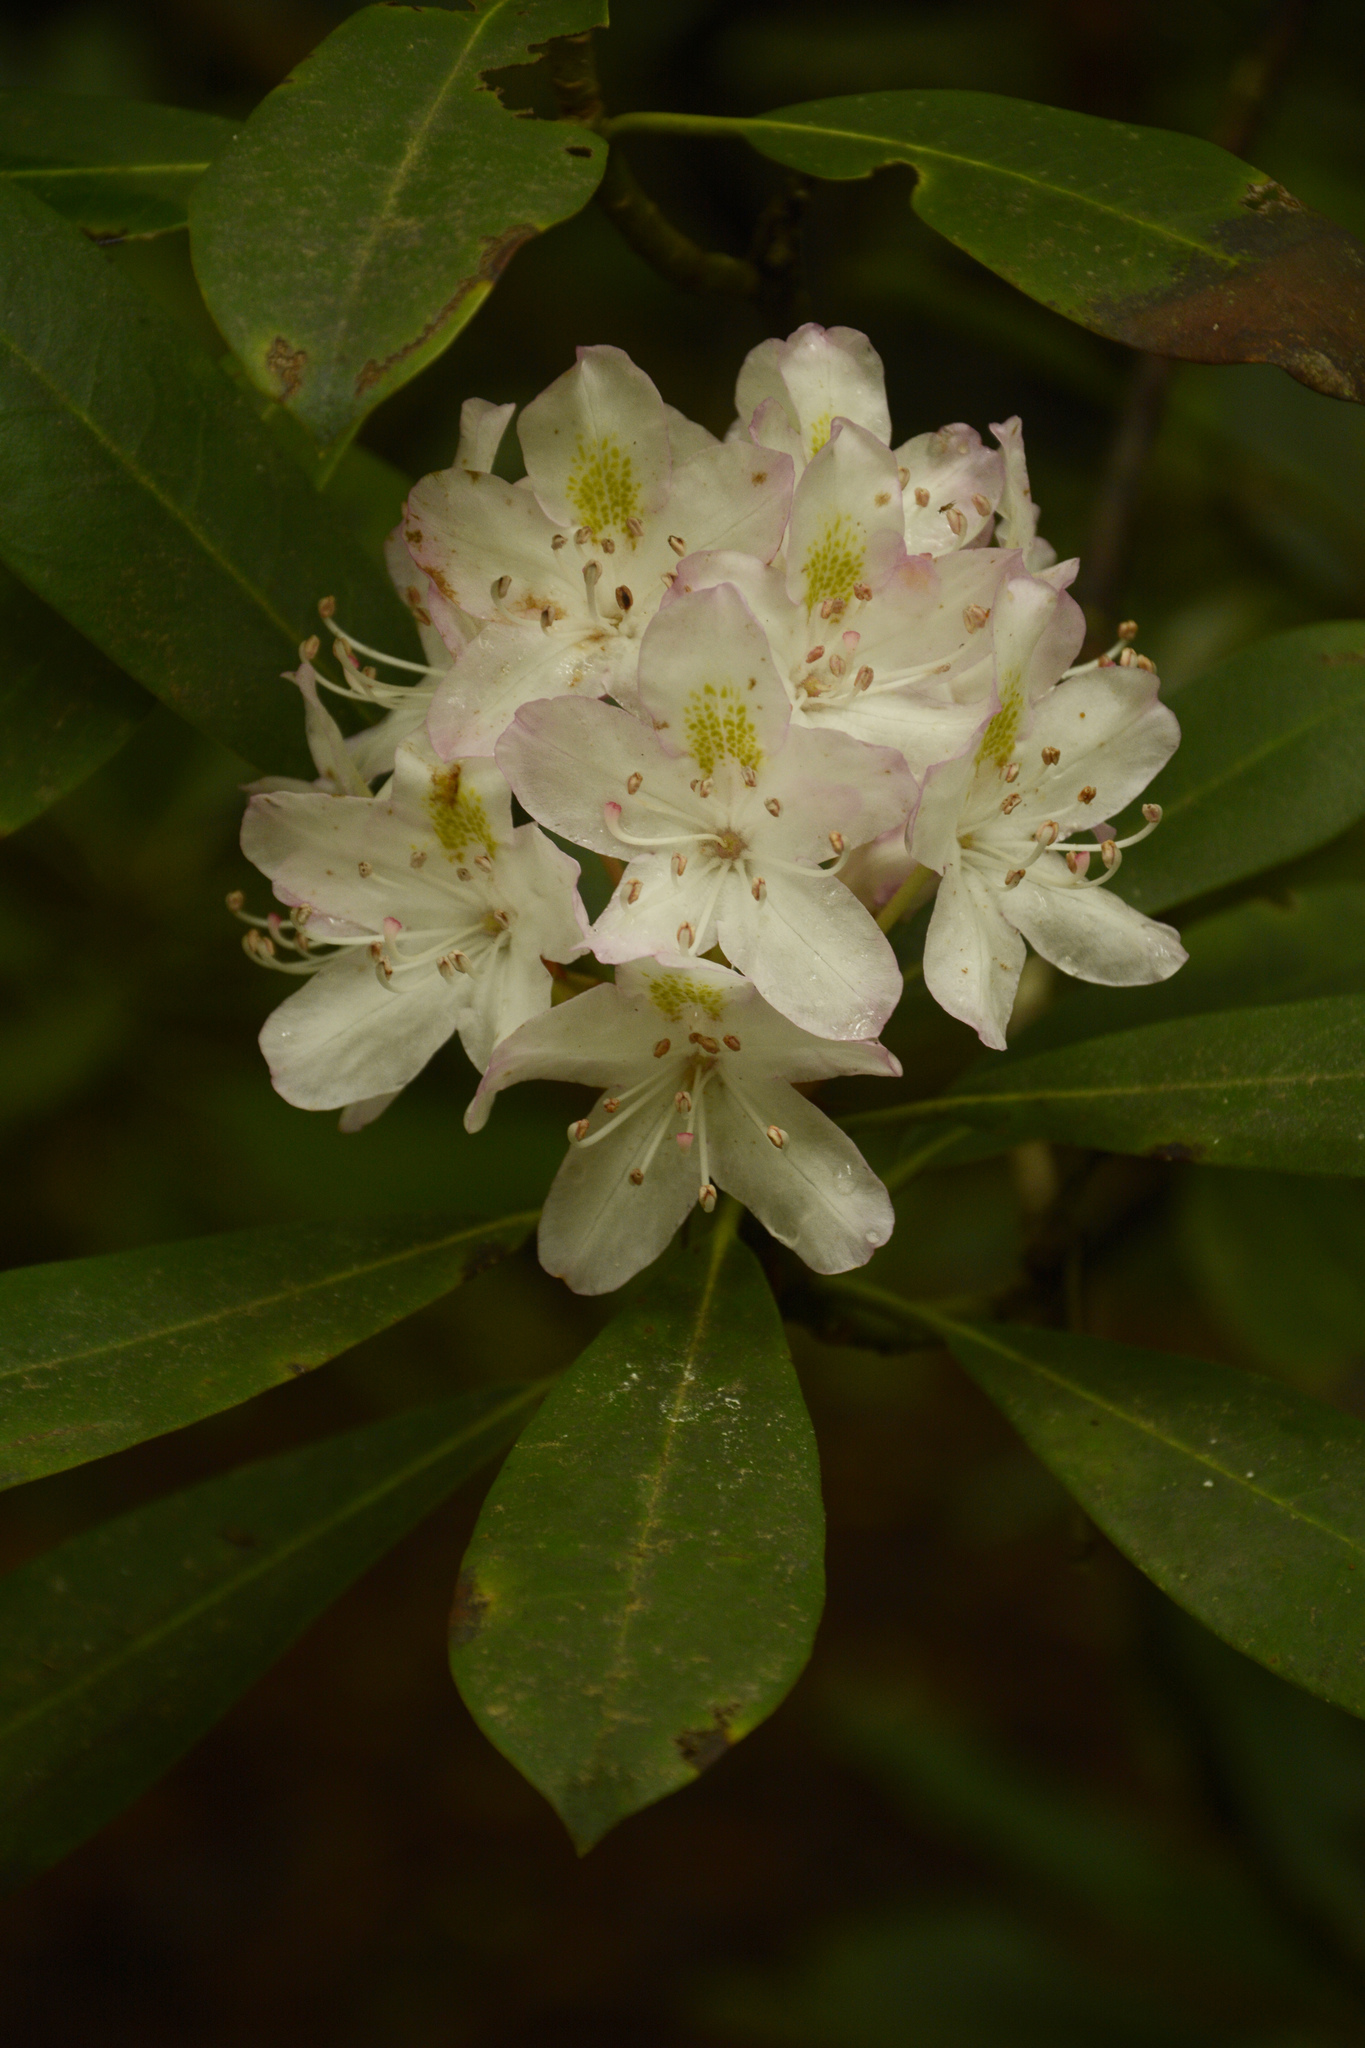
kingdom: Plantae
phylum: Tracheophyta
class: Magnoliopsida
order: Ericales
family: Ericaceae
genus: Rhododendron
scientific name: Rhododendron maximum
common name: Great rhododendron
